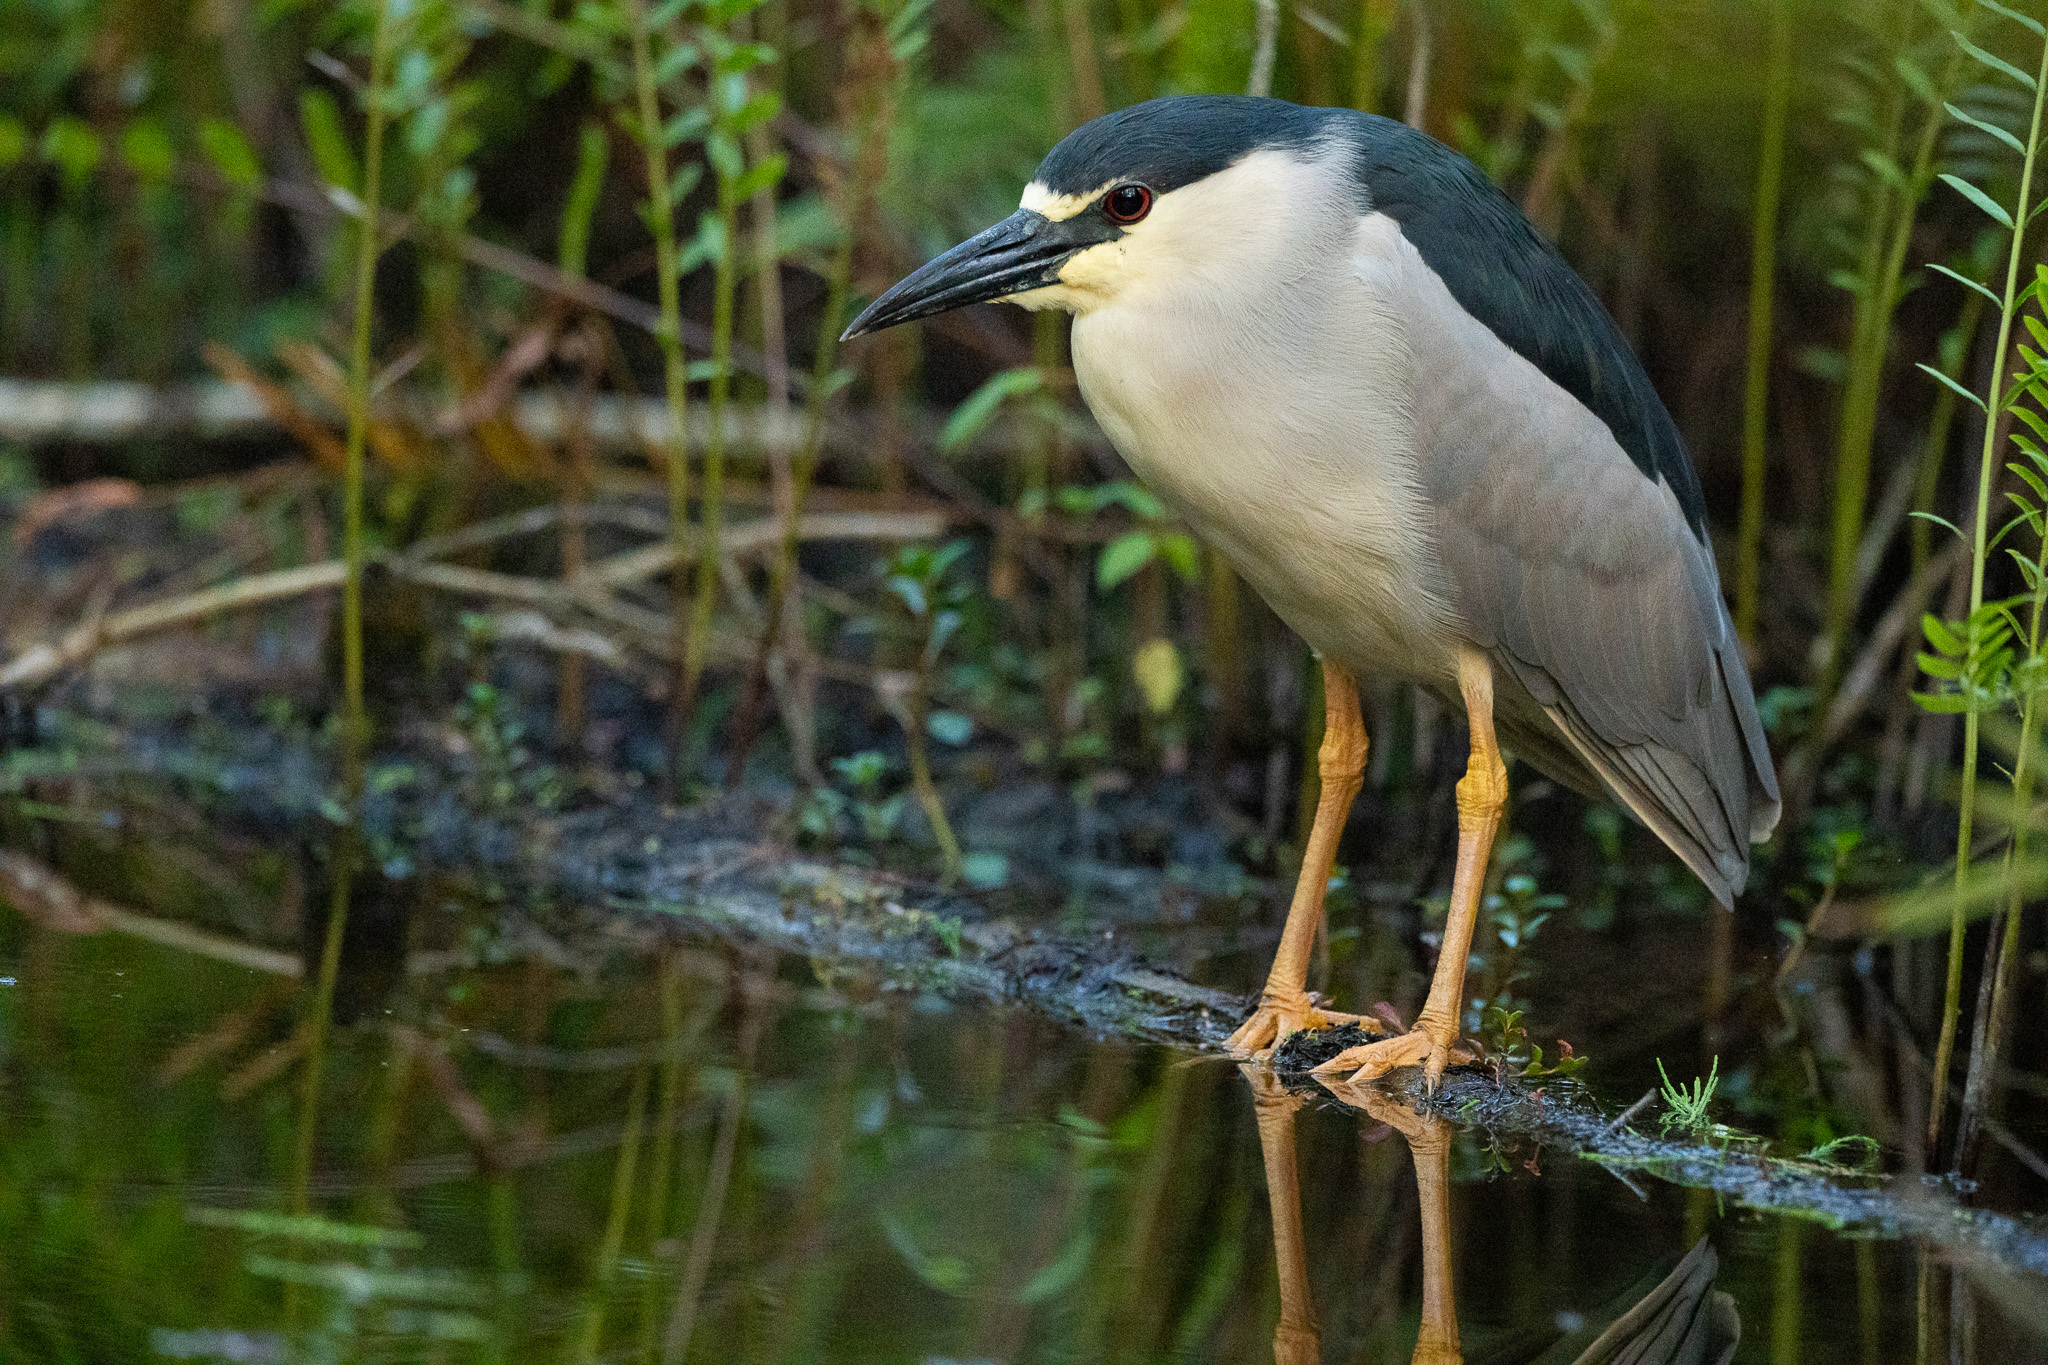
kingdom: Animalia
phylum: Chordata
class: Aves
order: Pelecaniformes
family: Ardeidae
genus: Nycticorax
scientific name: Nycticorax nycticorax
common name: Black-crowned night heron
